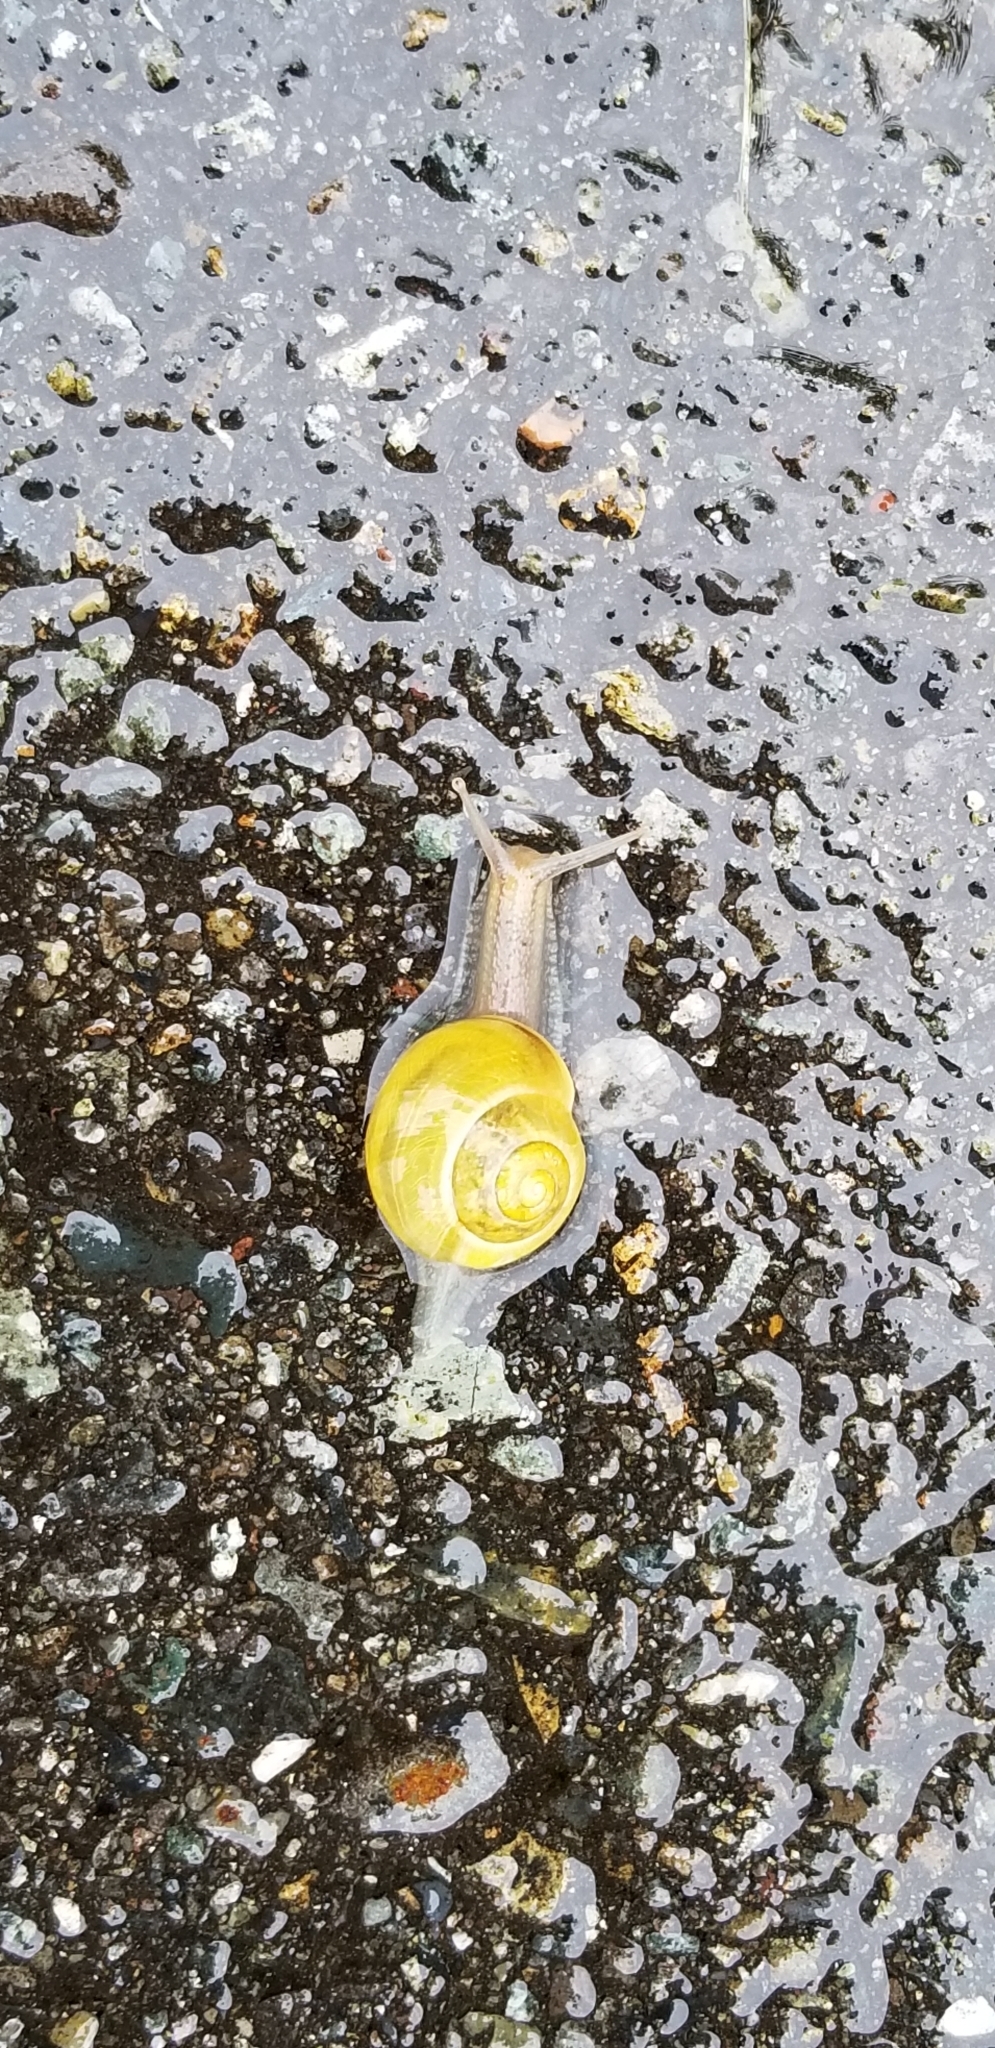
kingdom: Animalia
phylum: Mollusca
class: Gastropoda
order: Stylommatophora
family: Helicidae
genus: Cepaea
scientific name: Cepaea nemoralis
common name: Grovesnail
